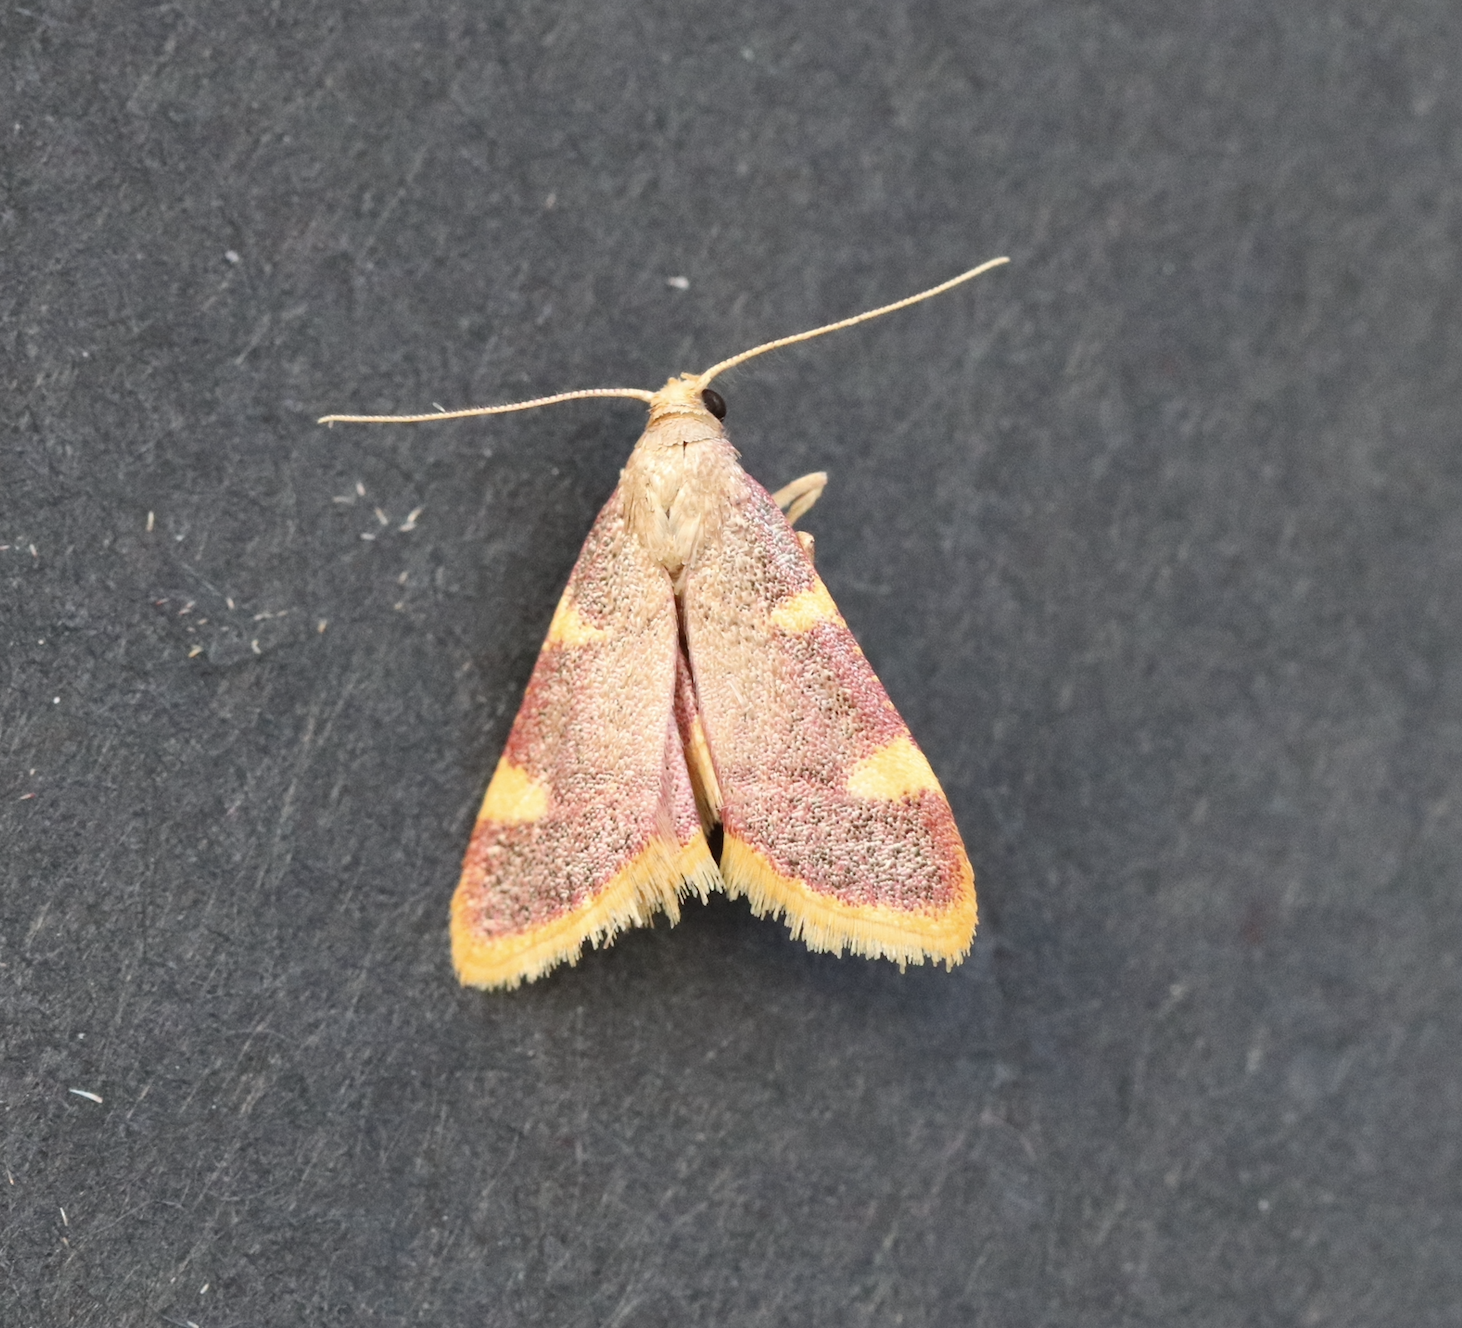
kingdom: Animalia
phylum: Arthropoda
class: Insecta
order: Lepidoptera
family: Pyralidae
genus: Hypsopygia
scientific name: Hypsopygia costalis
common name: Gold triangle
